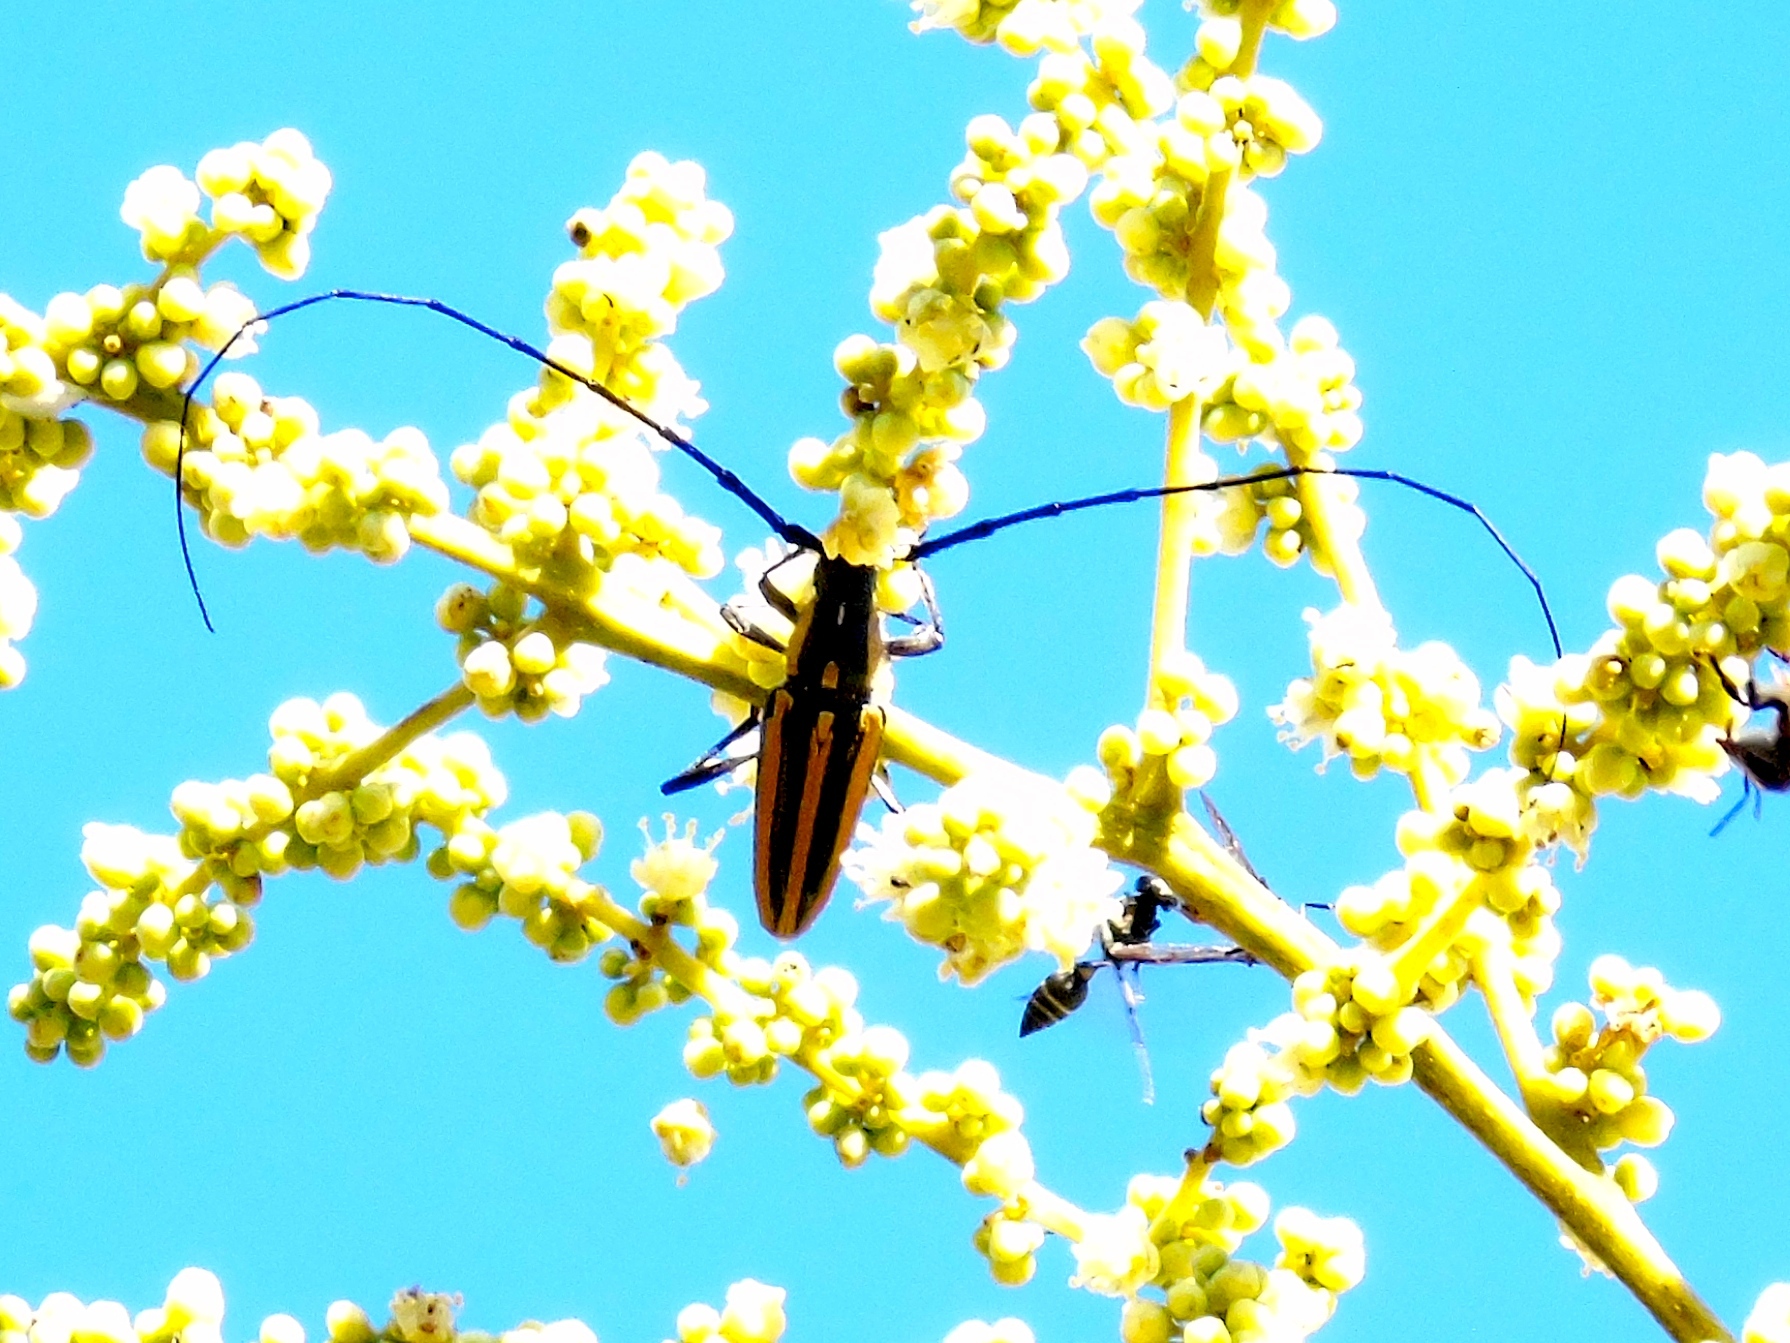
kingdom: Animalia
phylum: Arthropoda
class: Insecta
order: Coleoptera
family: Cerambycidae
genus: Sphaenothecus
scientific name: Sphaenothecus trilineatus
